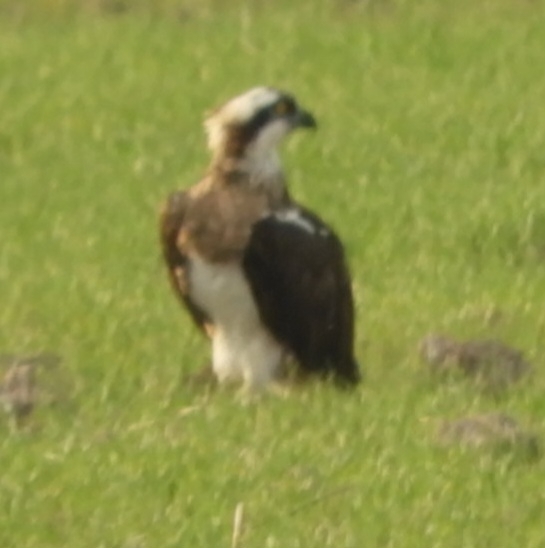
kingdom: Animalia
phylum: Chordata
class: Aves
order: Accipitriformes
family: Pandionidae
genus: Pandion
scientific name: Pandion haliaetus
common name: Osprey
